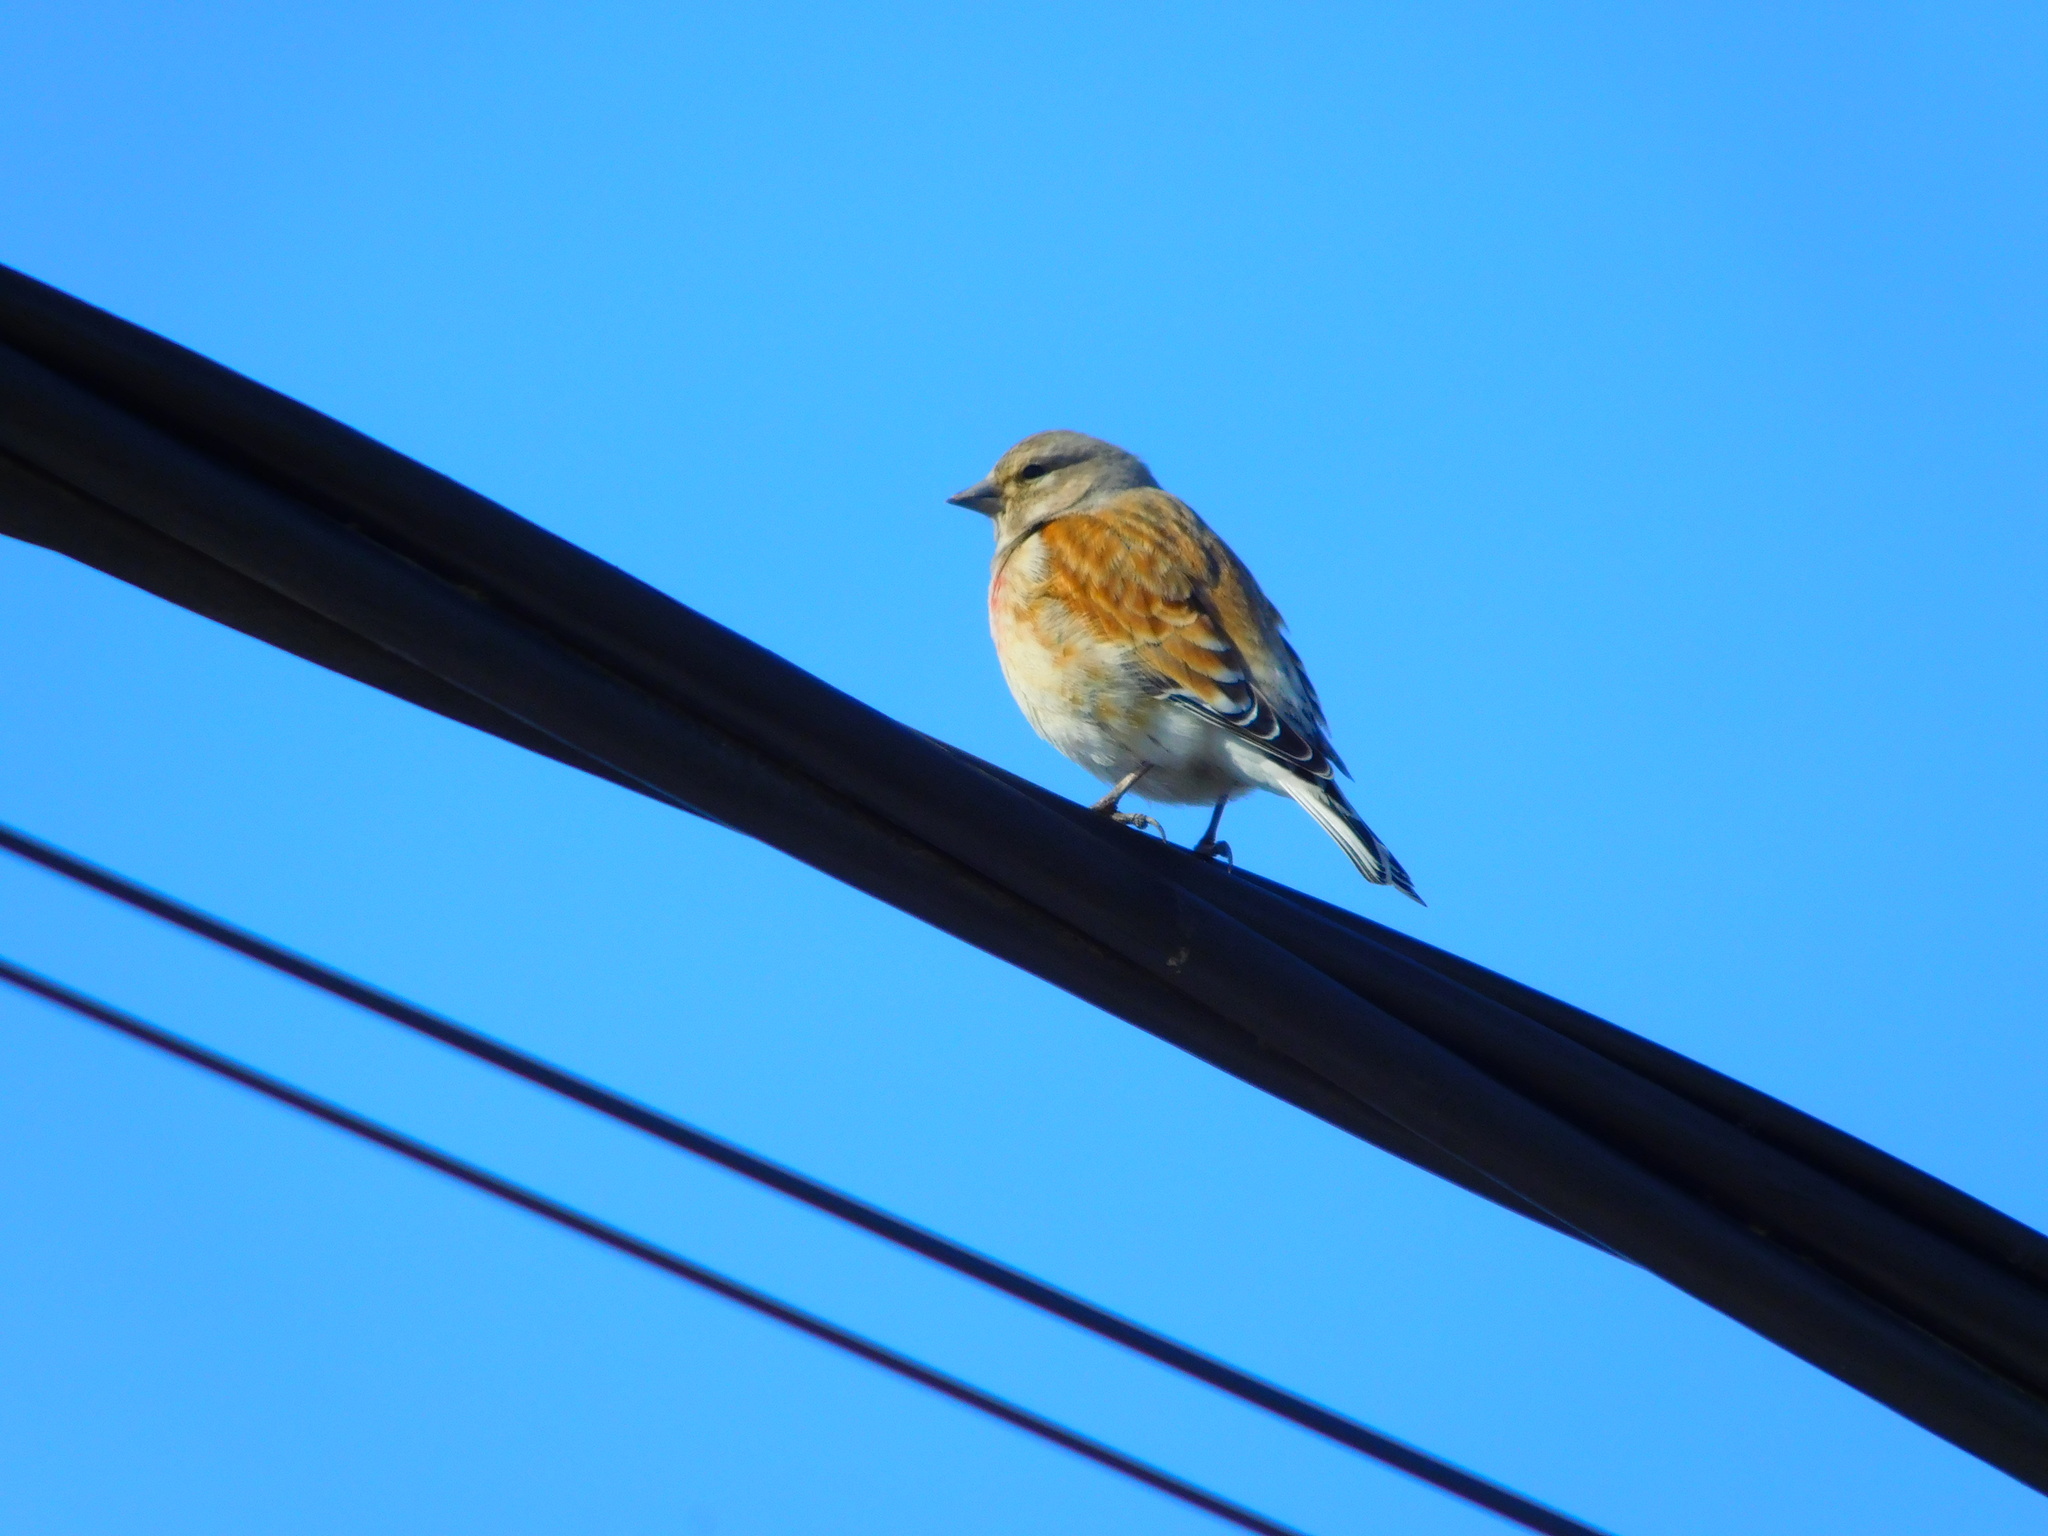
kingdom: Animalia
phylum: Chordata
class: Aves
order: Passeriformes
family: Fringillidae
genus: Linaria
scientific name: Linaria cannabina
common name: Common linnet
